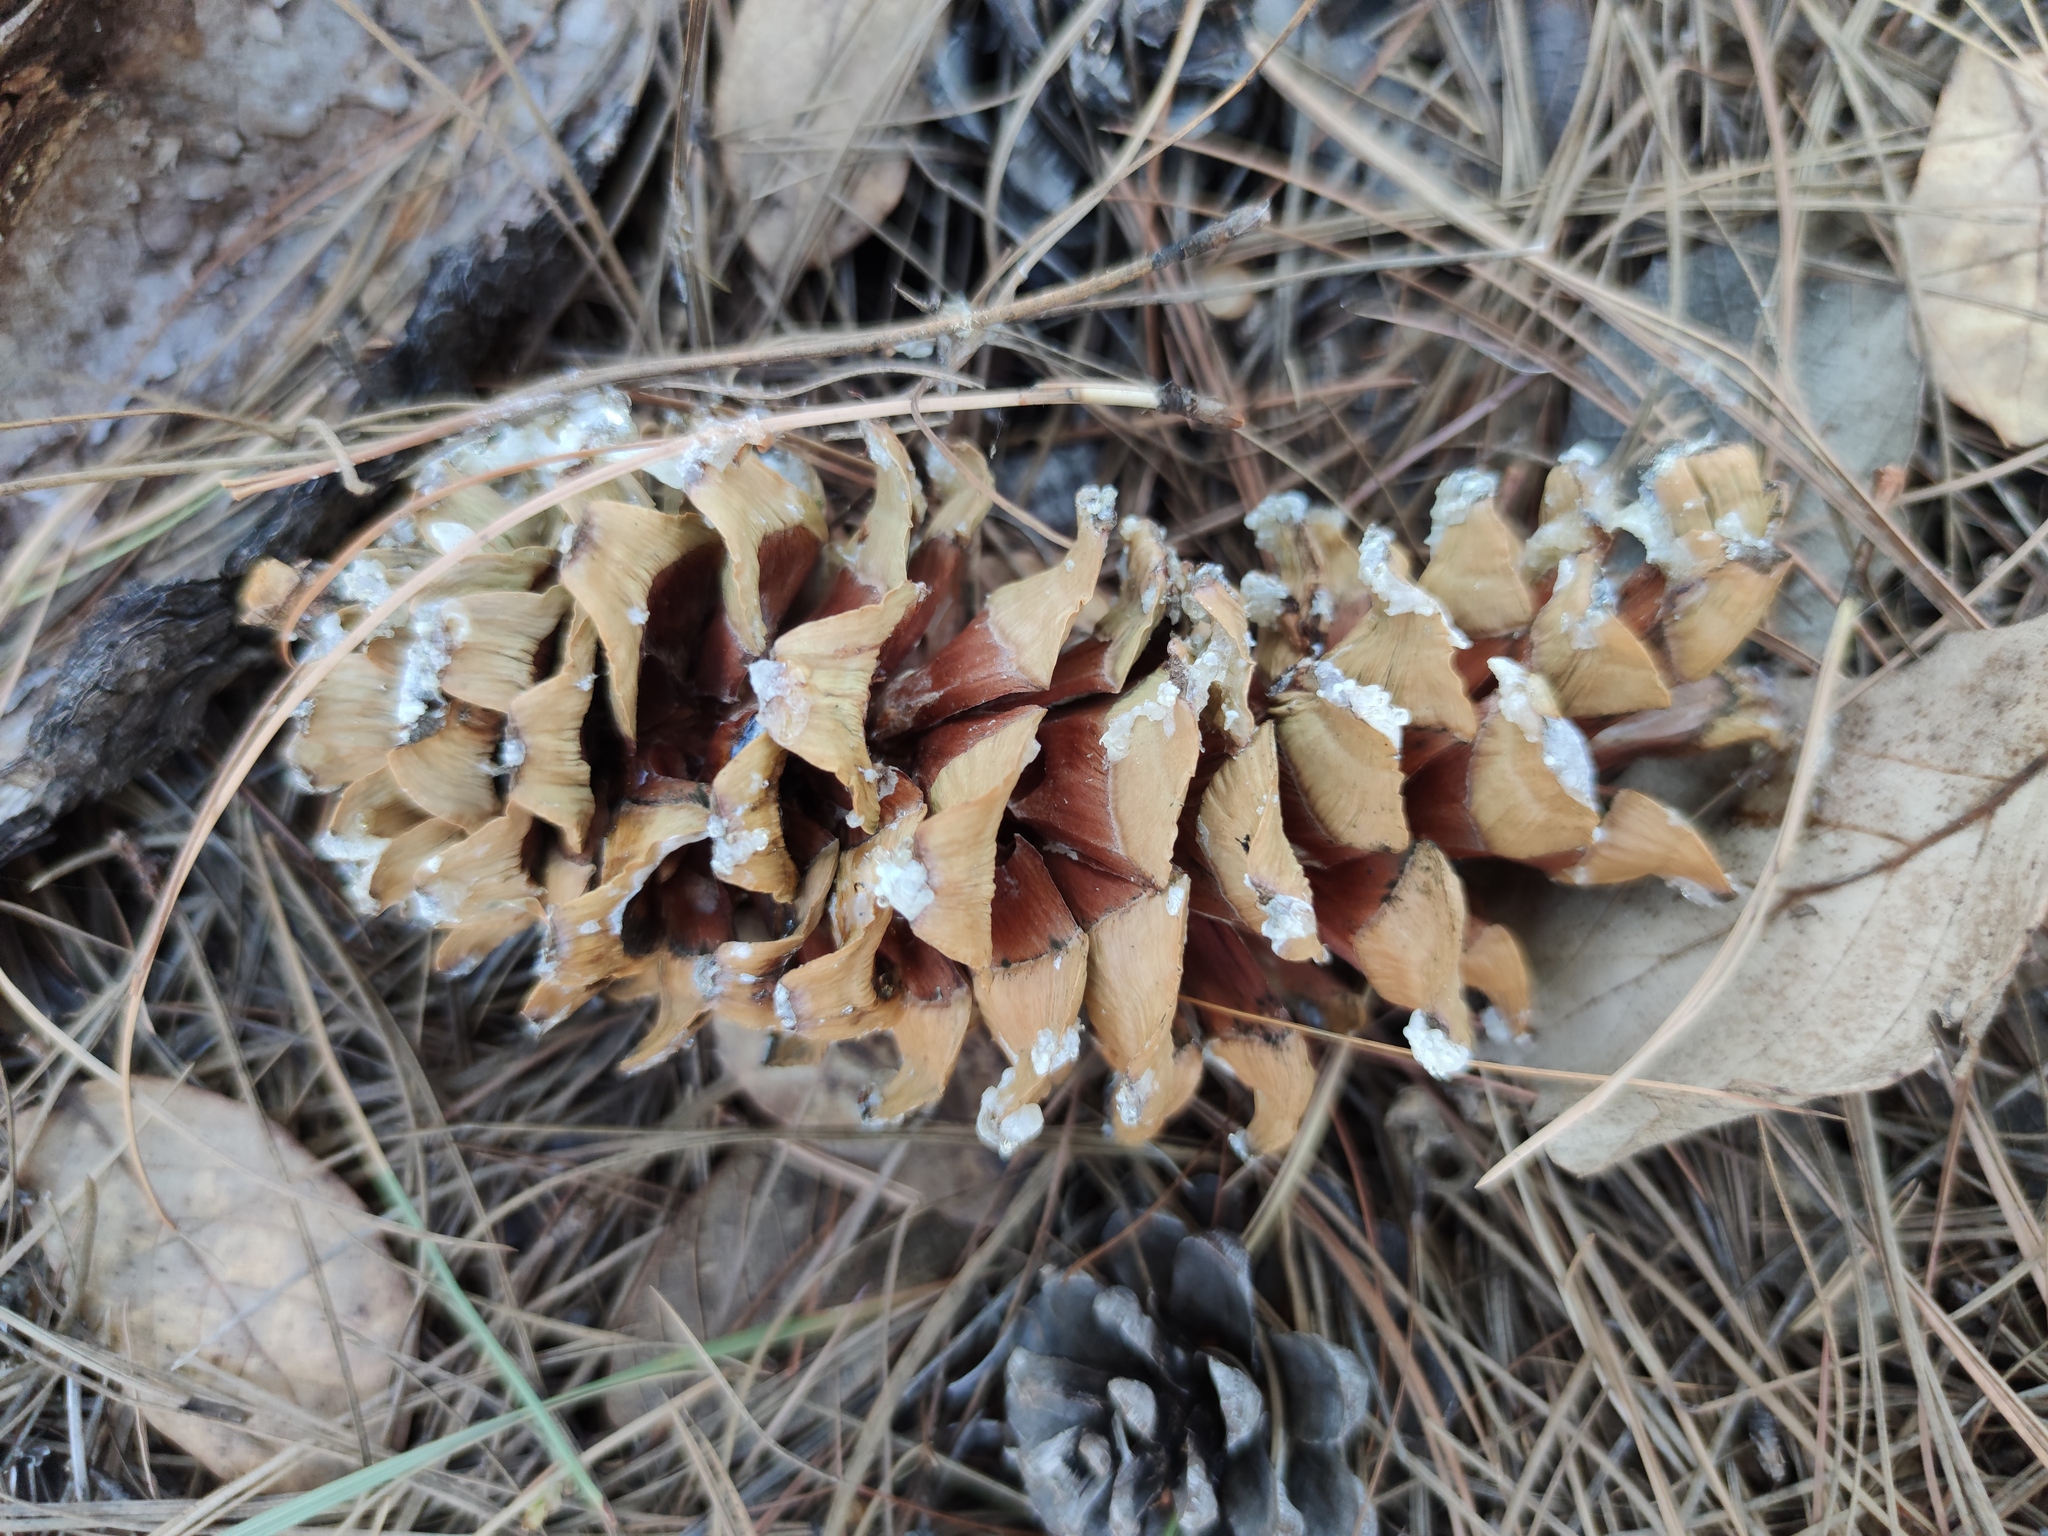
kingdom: Plantae
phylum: Tracheophyta
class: Pinopsida
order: Pinales
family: Pinaceae
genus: Pinus
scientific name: Pinus strobiformis
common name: Southwestern white pine
